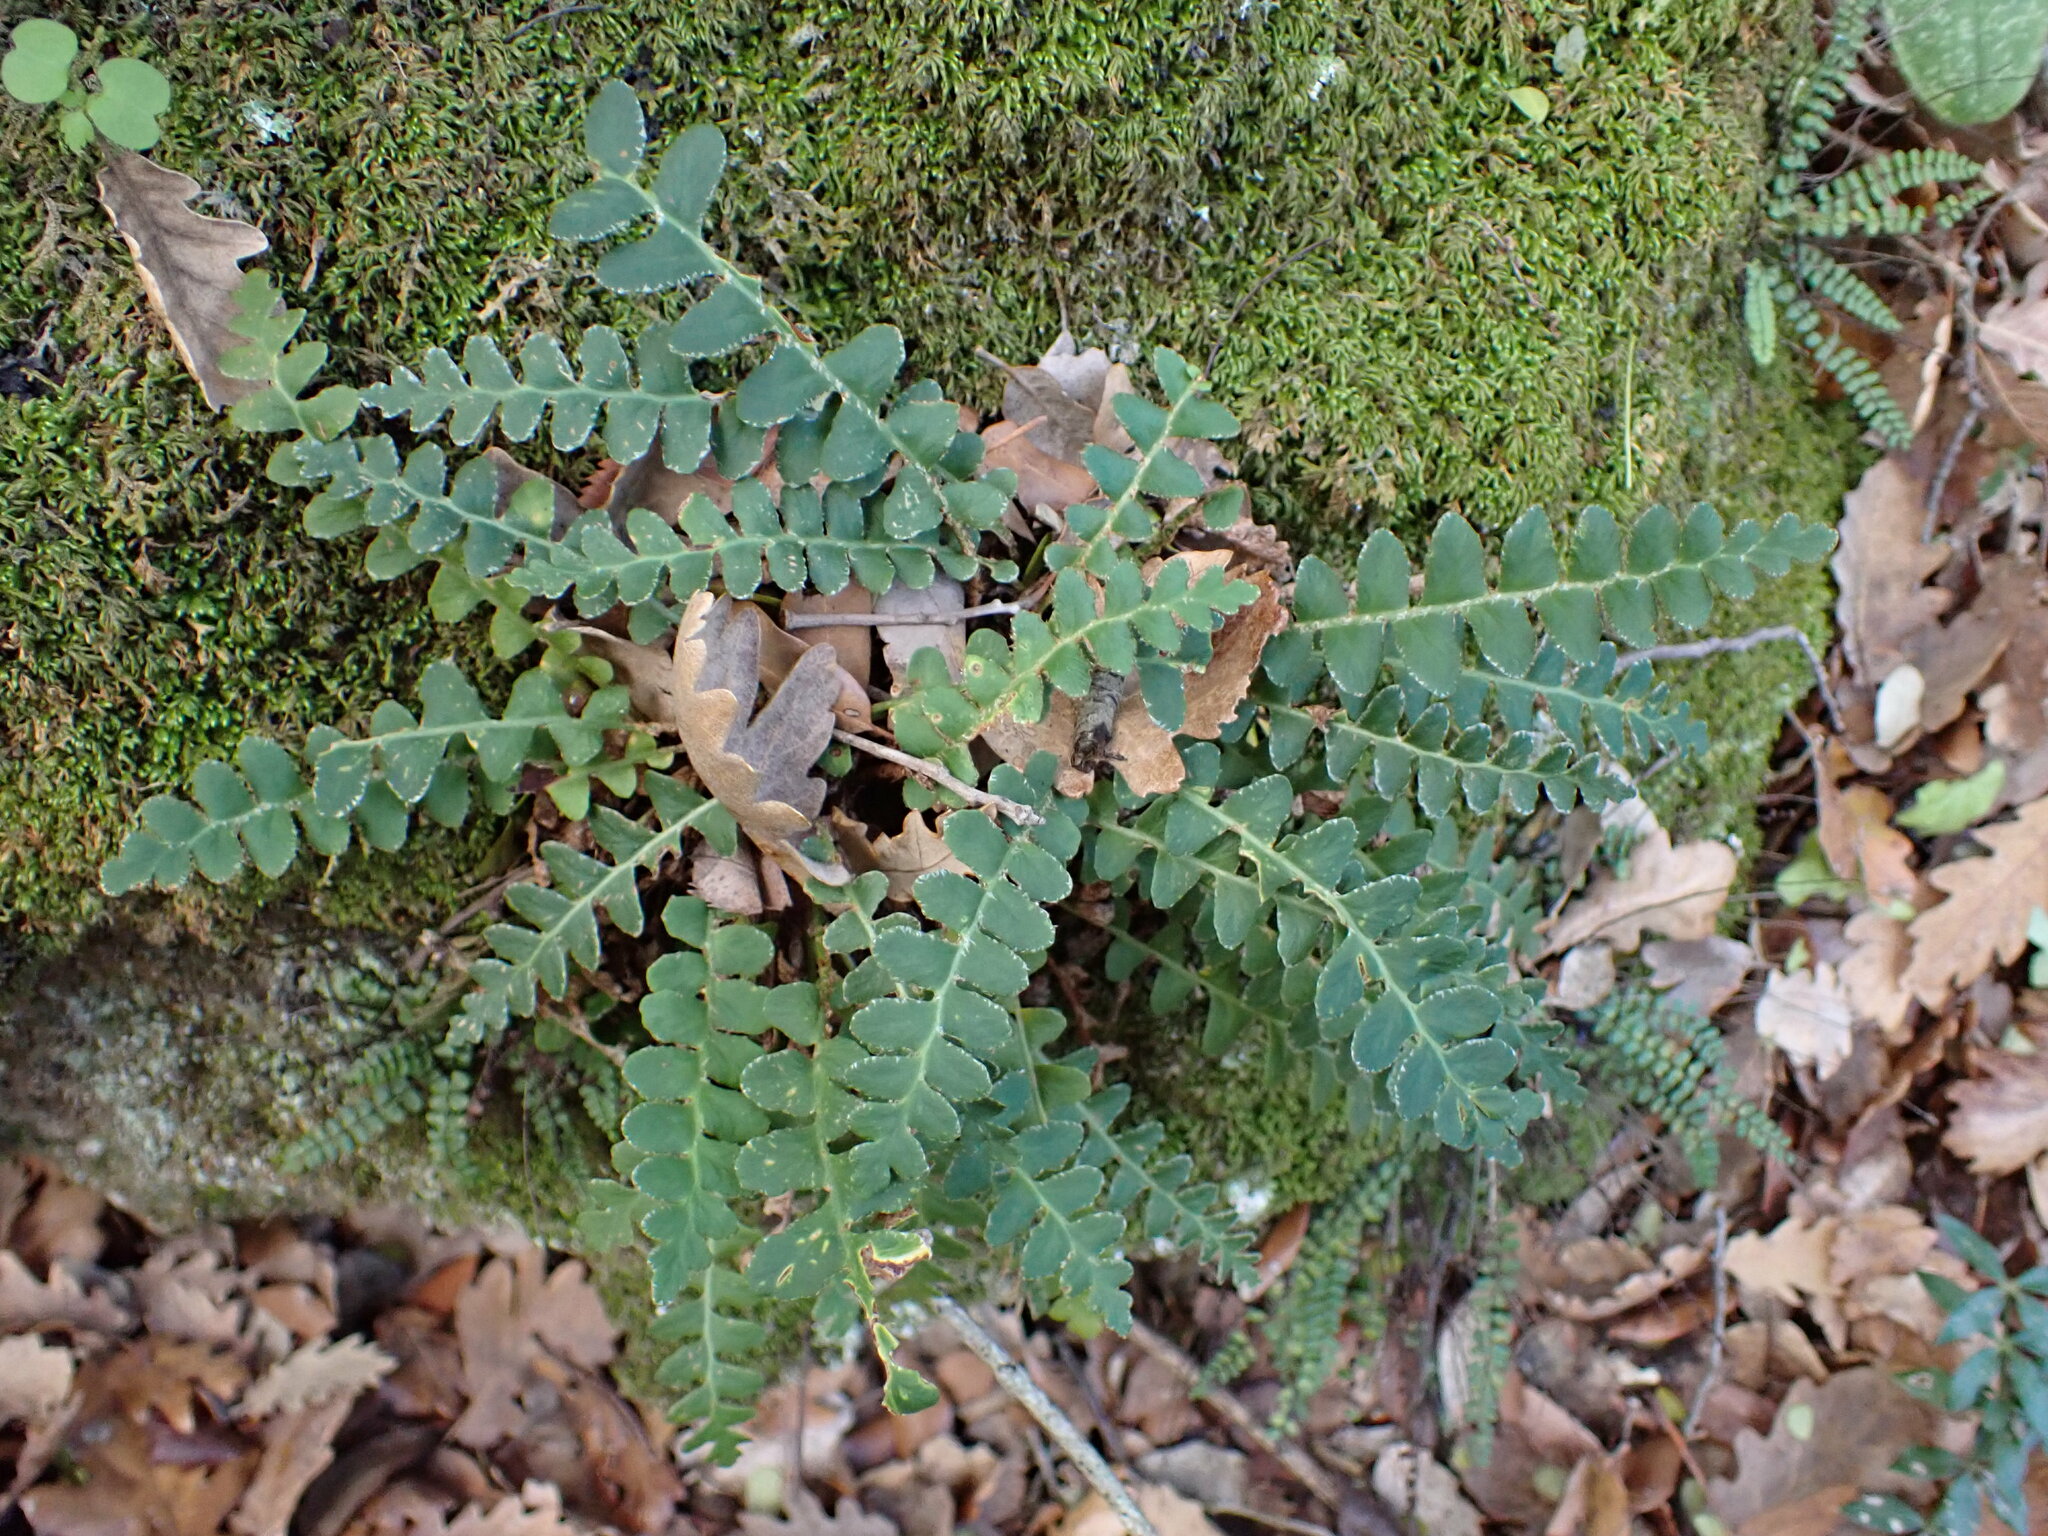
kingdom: Plantae
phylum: Tracheophyta
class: Polypodiopsida
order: Polypodiales
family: Aspleniaceae
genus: Asplenium
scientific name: Asplenium ceterach
